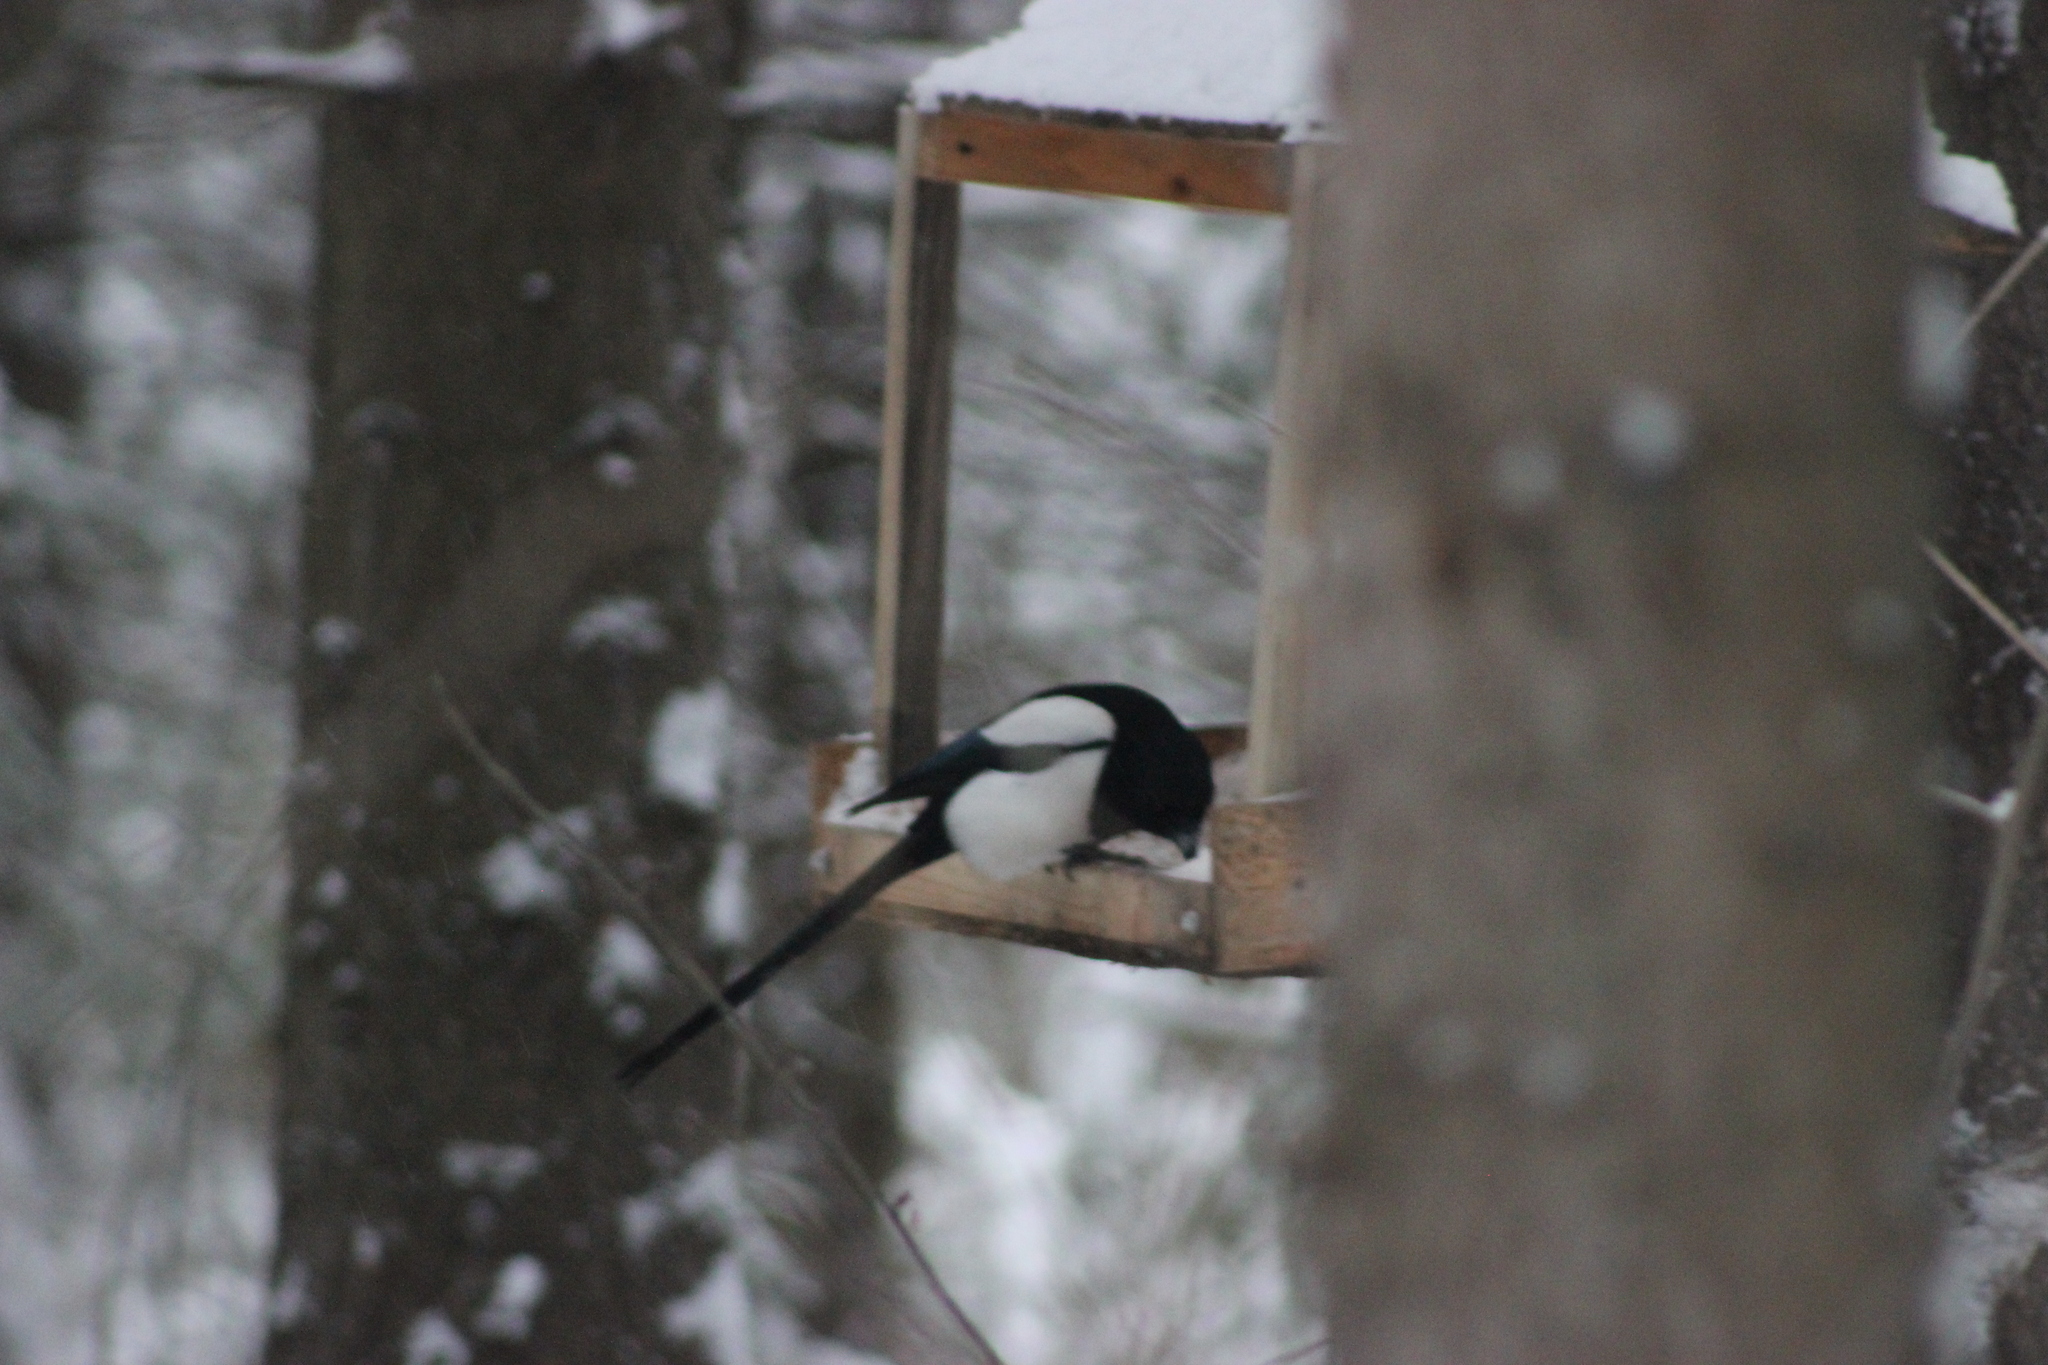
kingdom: Animalia
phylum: Chordata
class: Aves
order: Passeriformes
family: Corvidae
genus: Pica
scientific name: Pica pica
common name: Eurasian magpie
